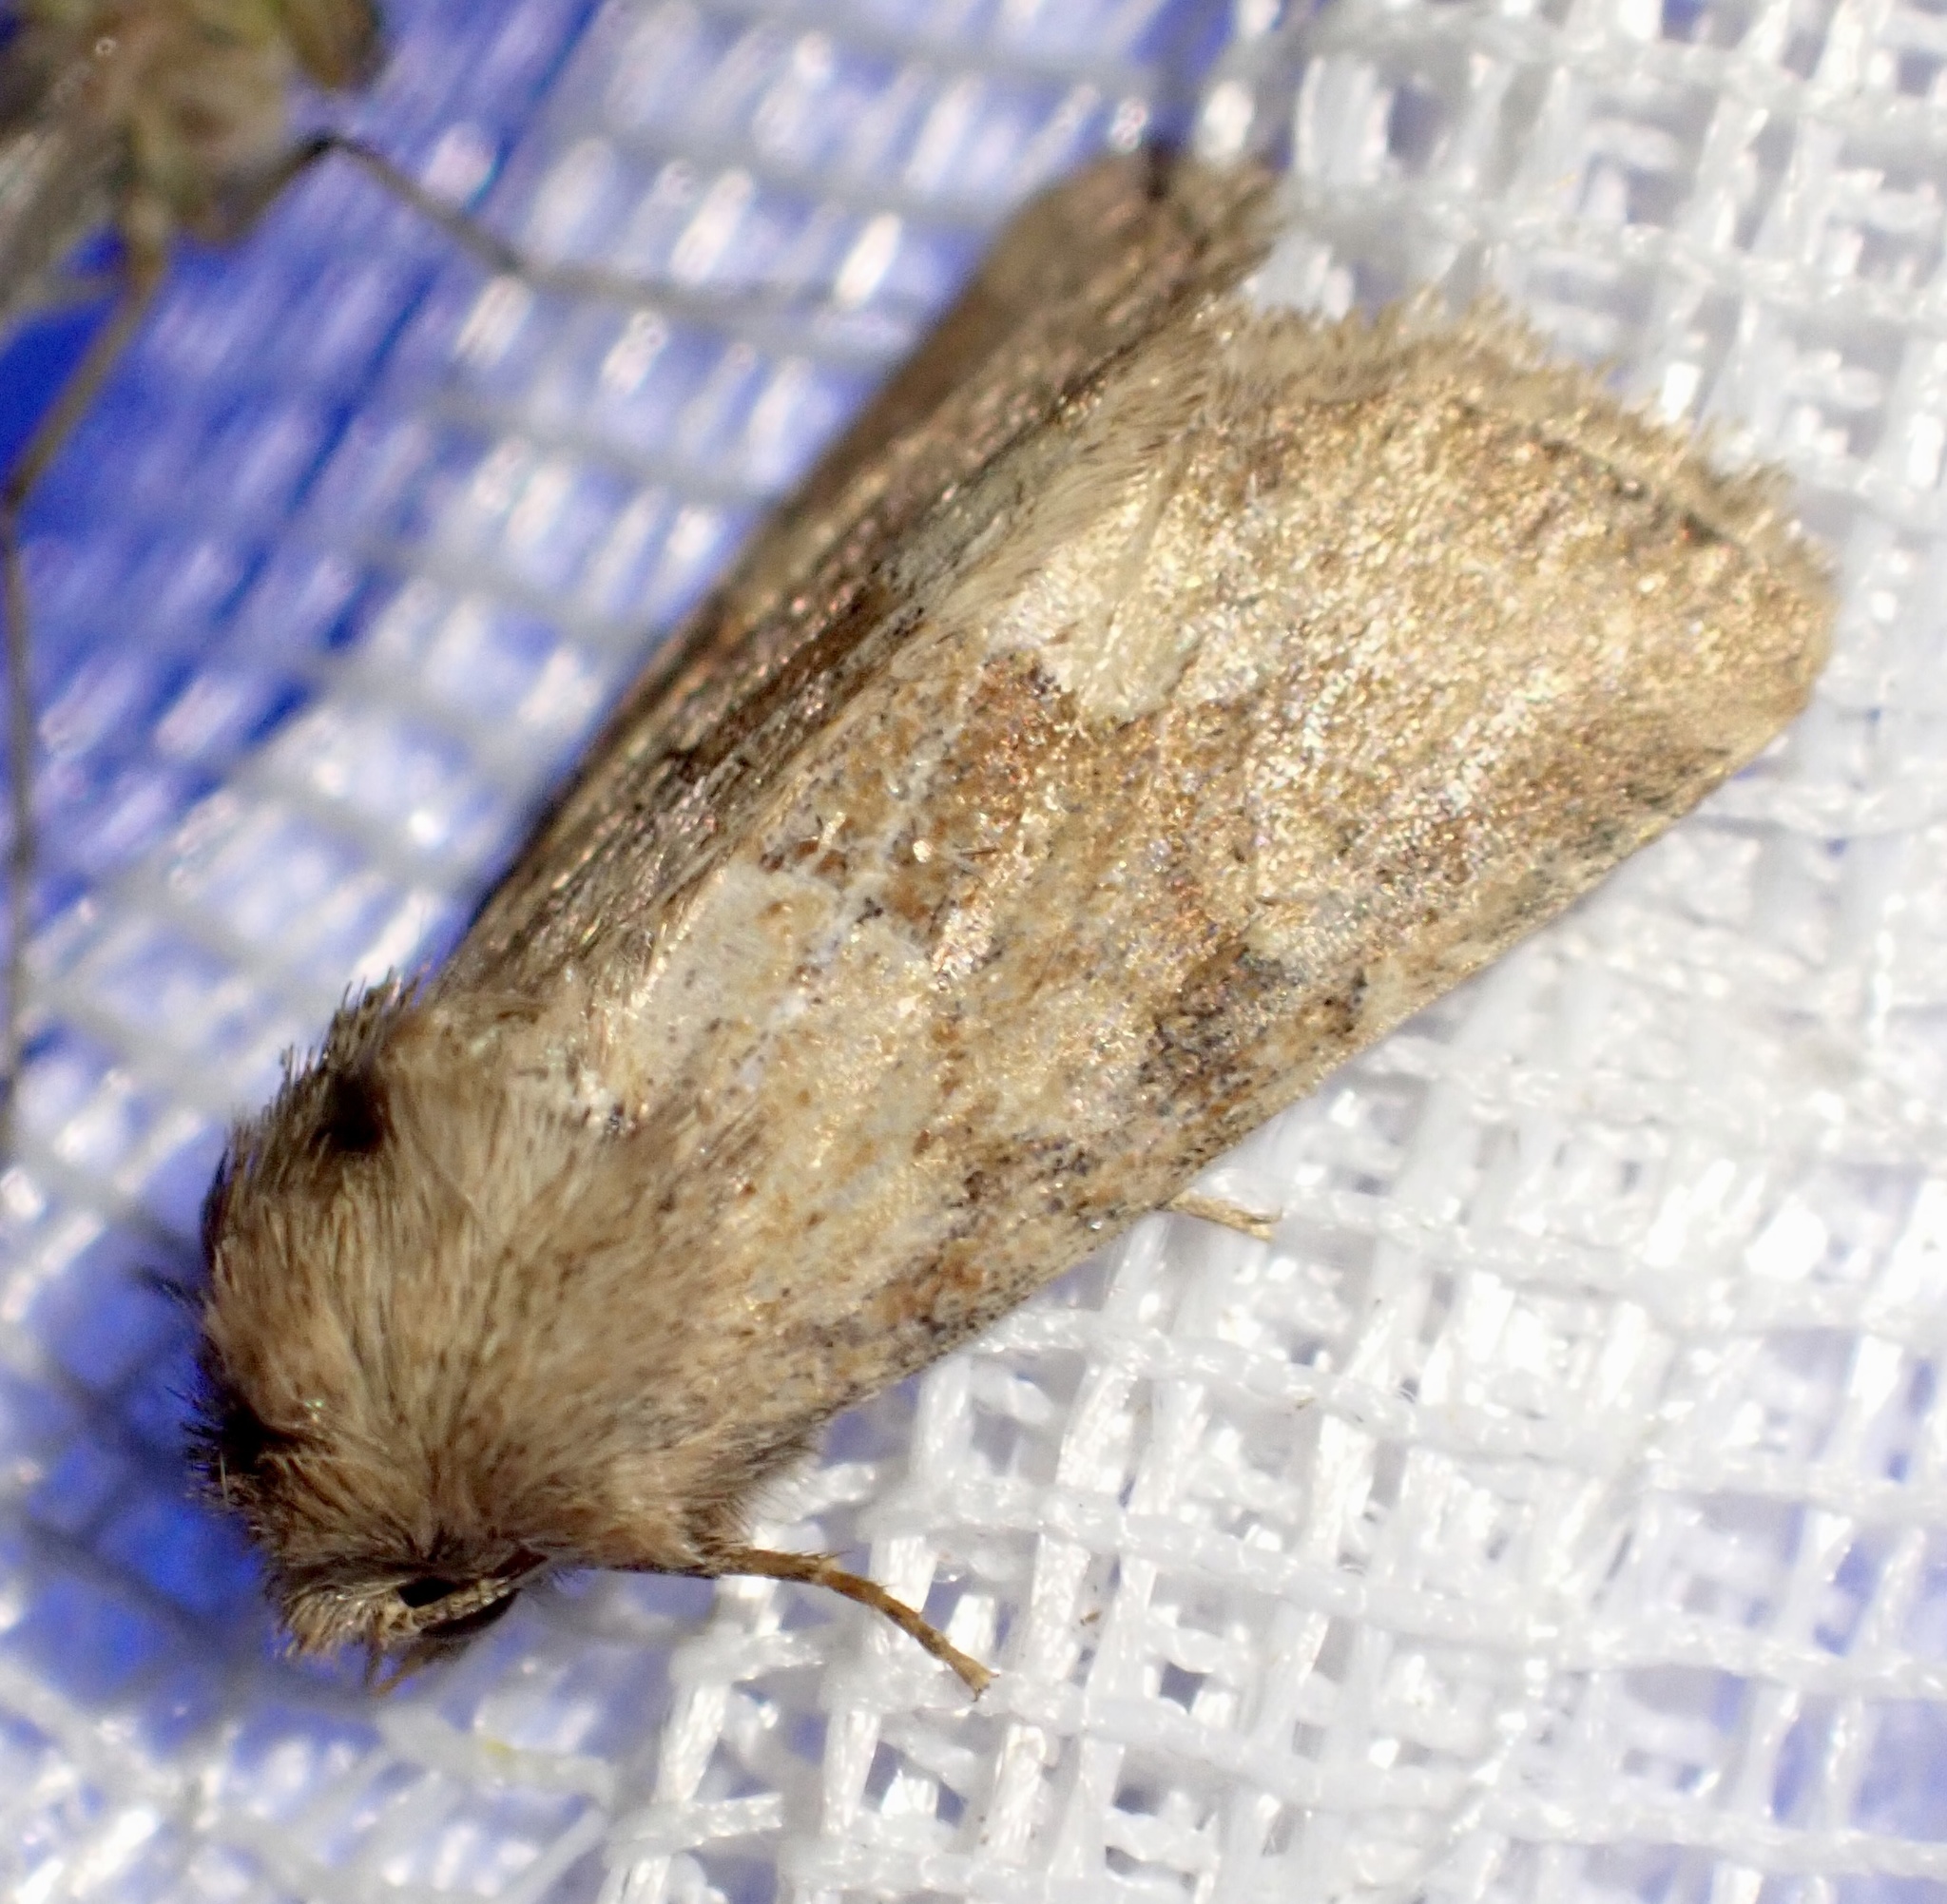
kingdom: Animalia
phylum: Arthropoda
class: Insecta
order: Lepidoptera
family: Noctuidae
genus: Oligia
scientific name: Oligia fasciuncula
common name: Middle-barred minor
